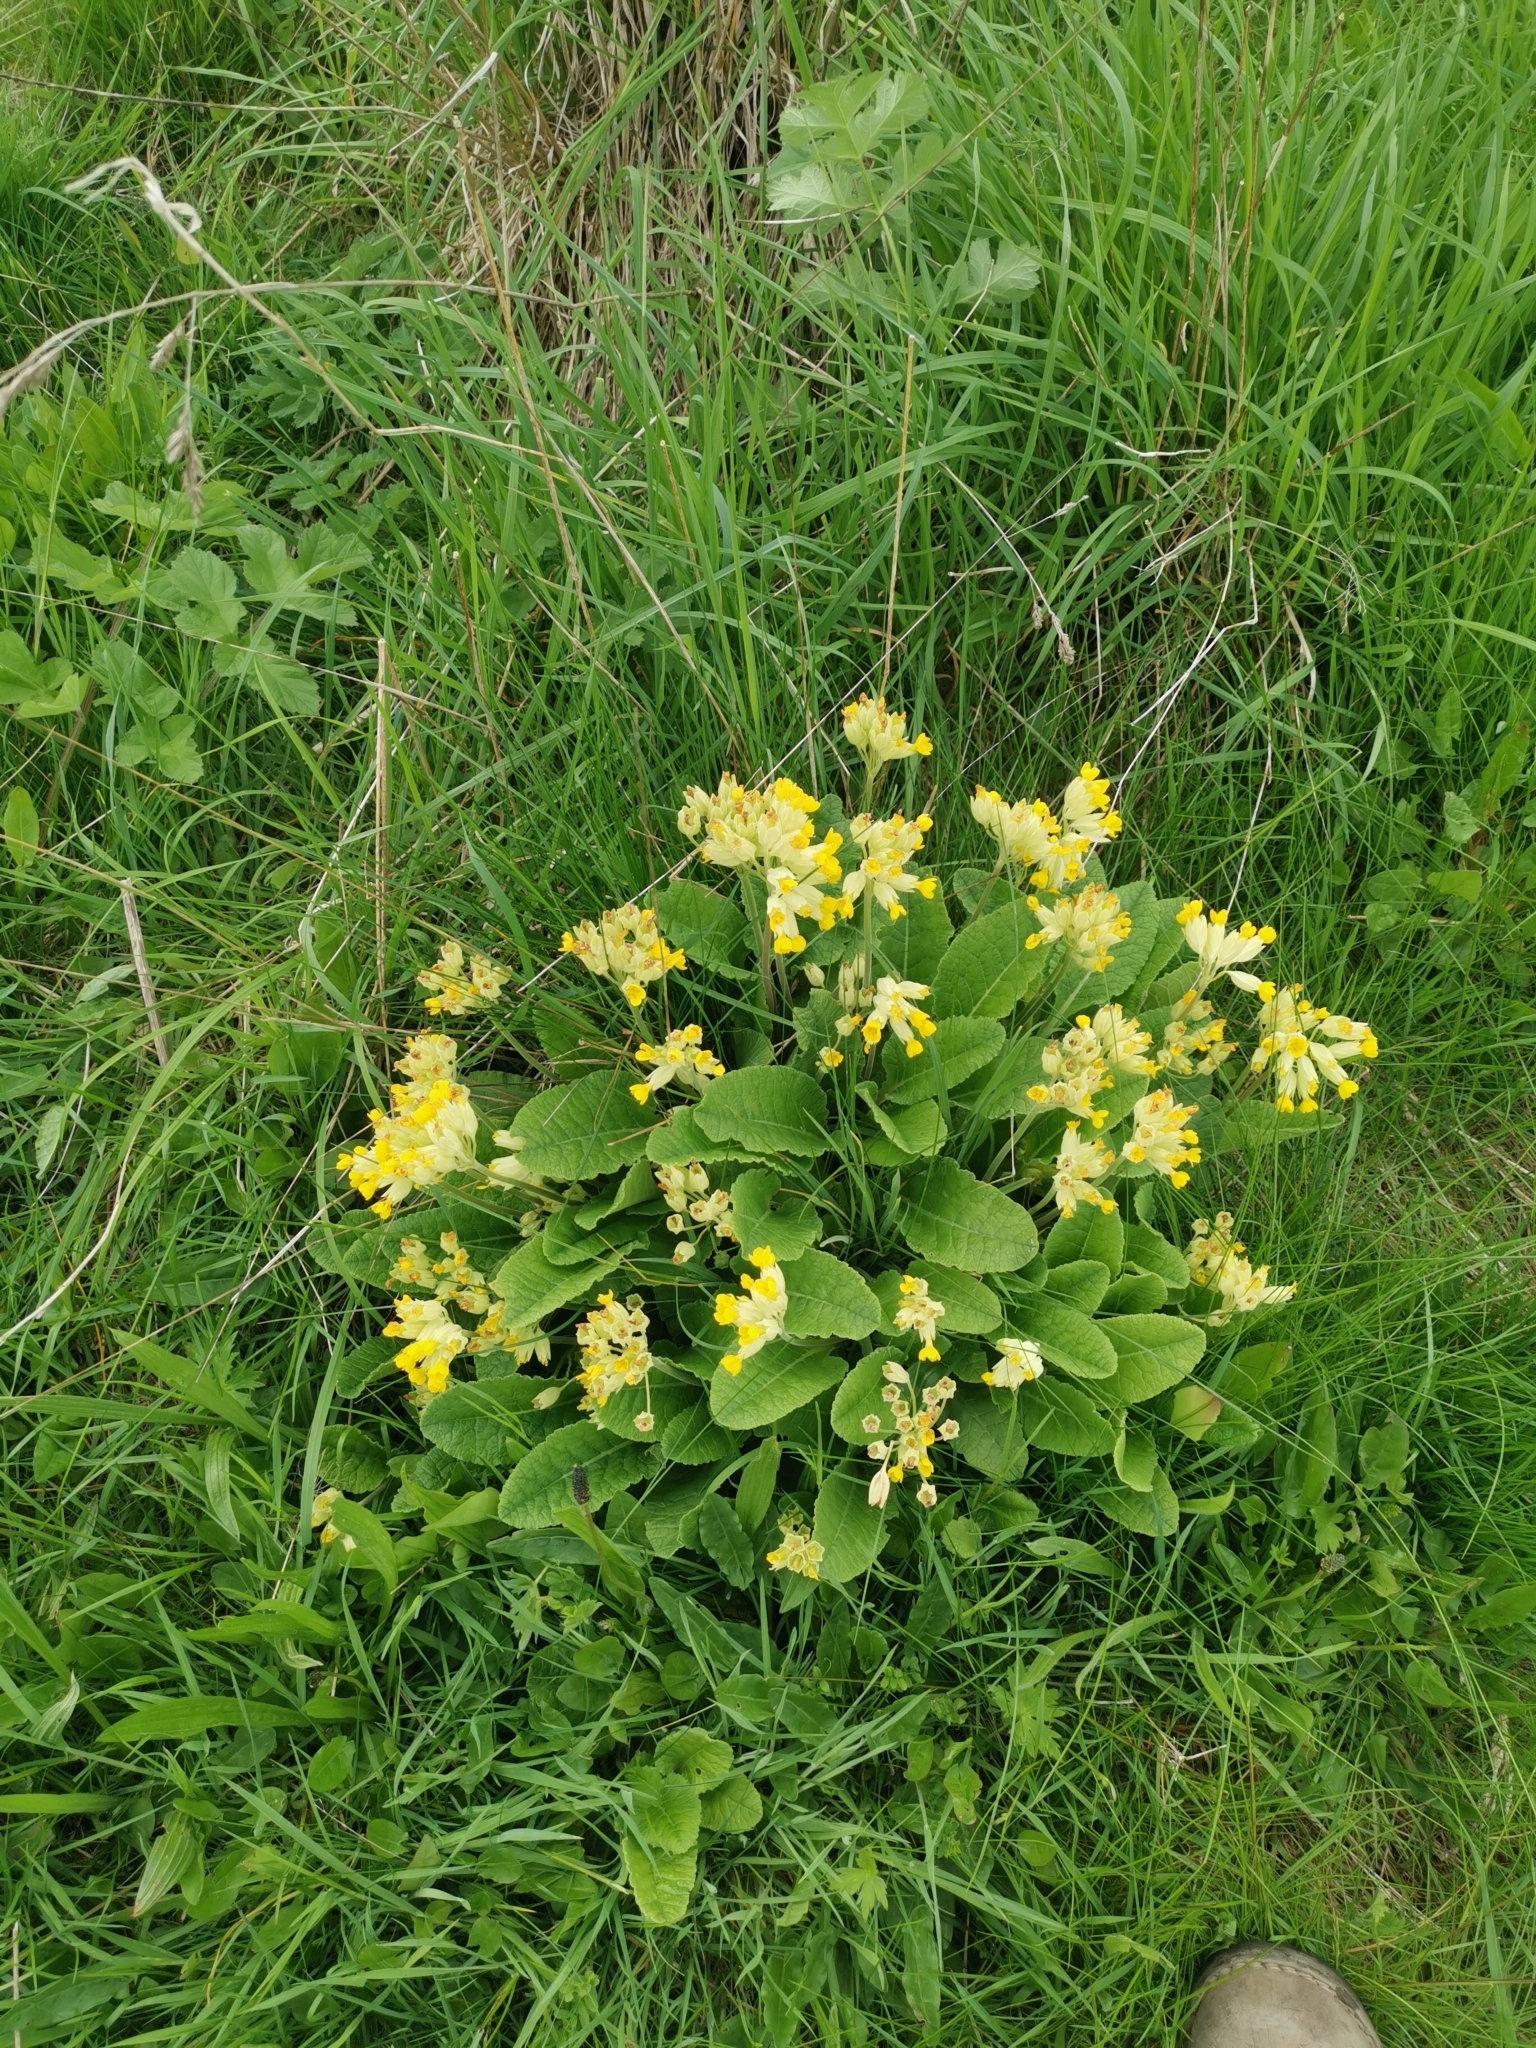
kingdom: Plantae
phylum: Tracheophyta
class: Magnoliopsida
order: Ericales
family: Primulaceae
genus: Primula
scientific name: Primula veris
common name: Cowslip
